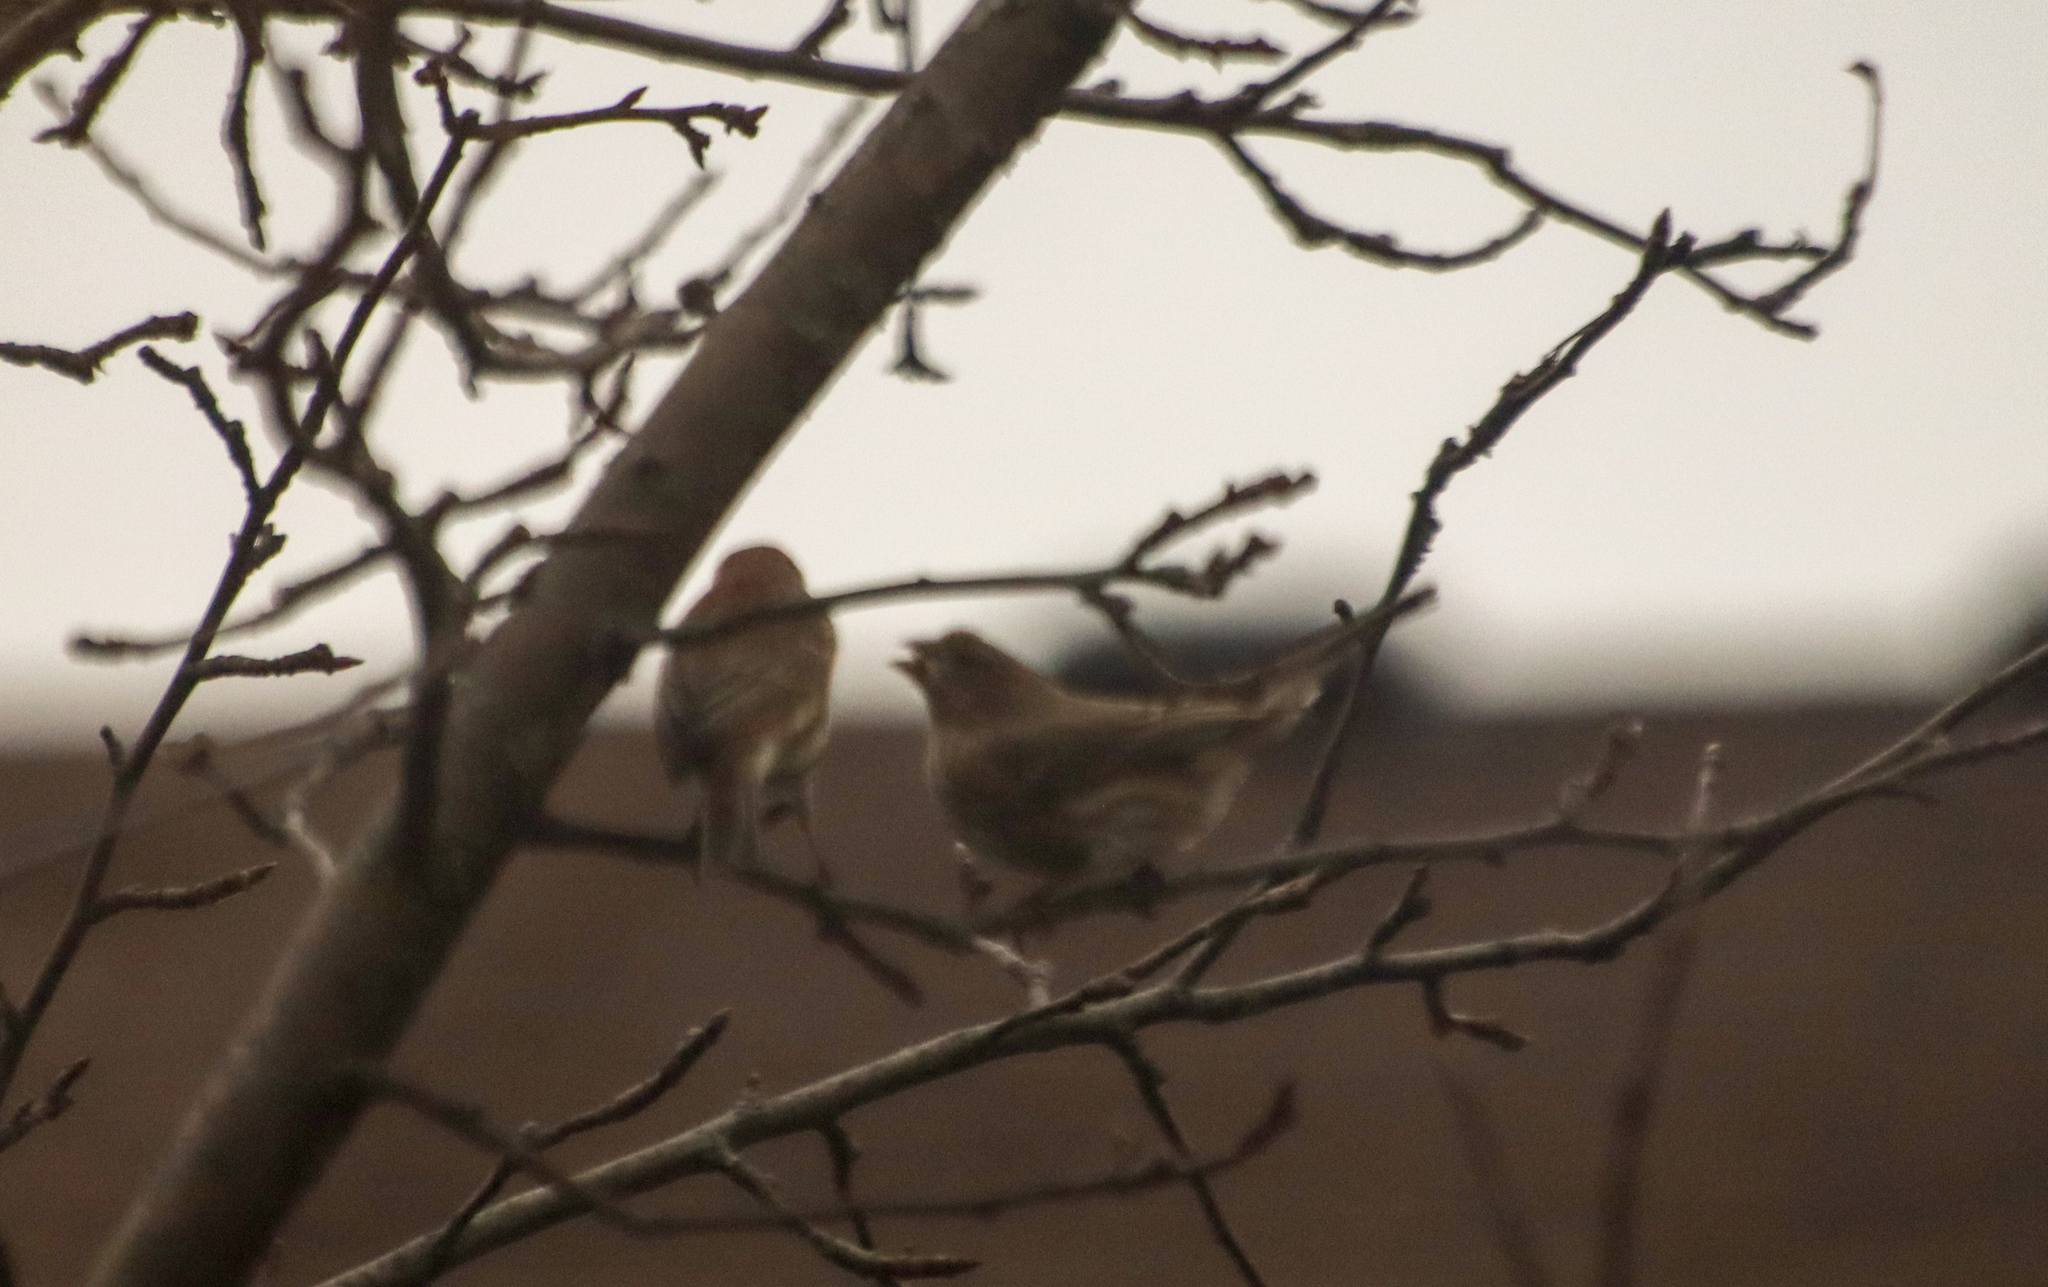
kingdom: Animalia
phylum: Chordata
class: Aves
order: Passeriformes
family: Fringillidae
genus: Haemorhous
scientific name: Haemorhous mexicanus
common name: House finch
